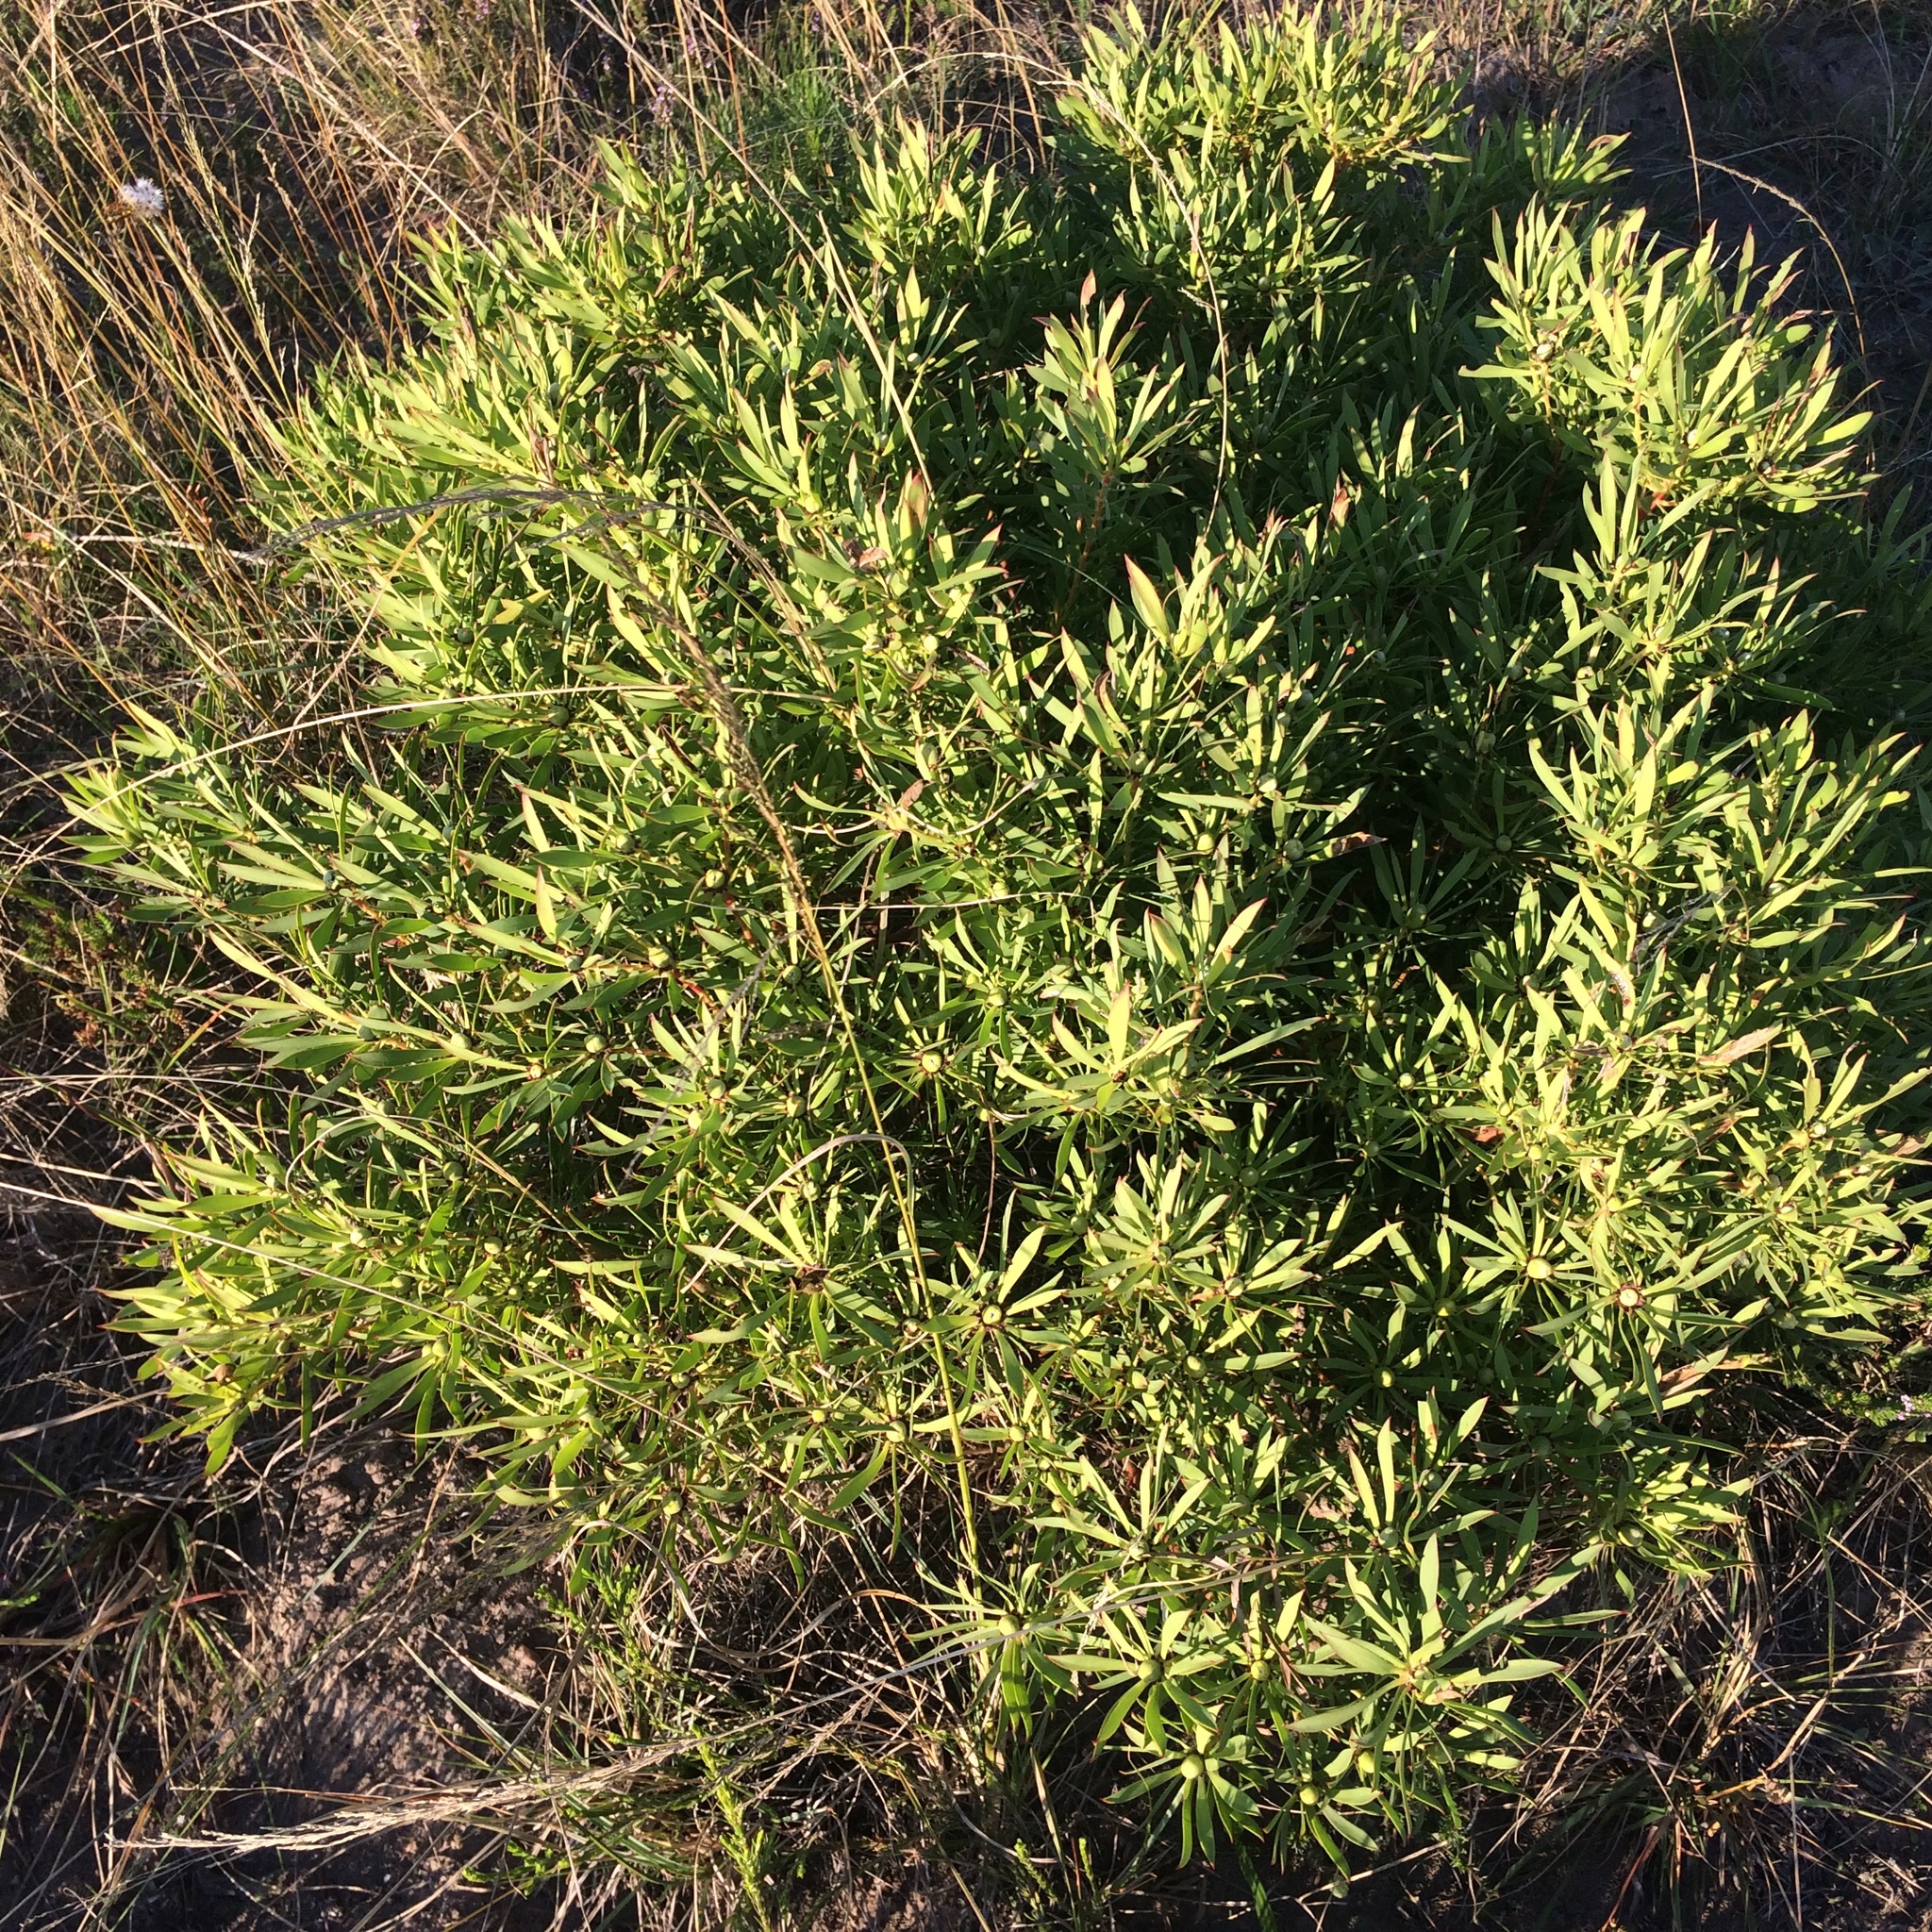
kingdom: Plantae
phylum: Tracheophyta
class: Magnoliopsida
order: Proteales
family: Proteaceae
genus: Leucadendron
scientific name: Leucadendron salignum
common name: Common sunshine conebush
